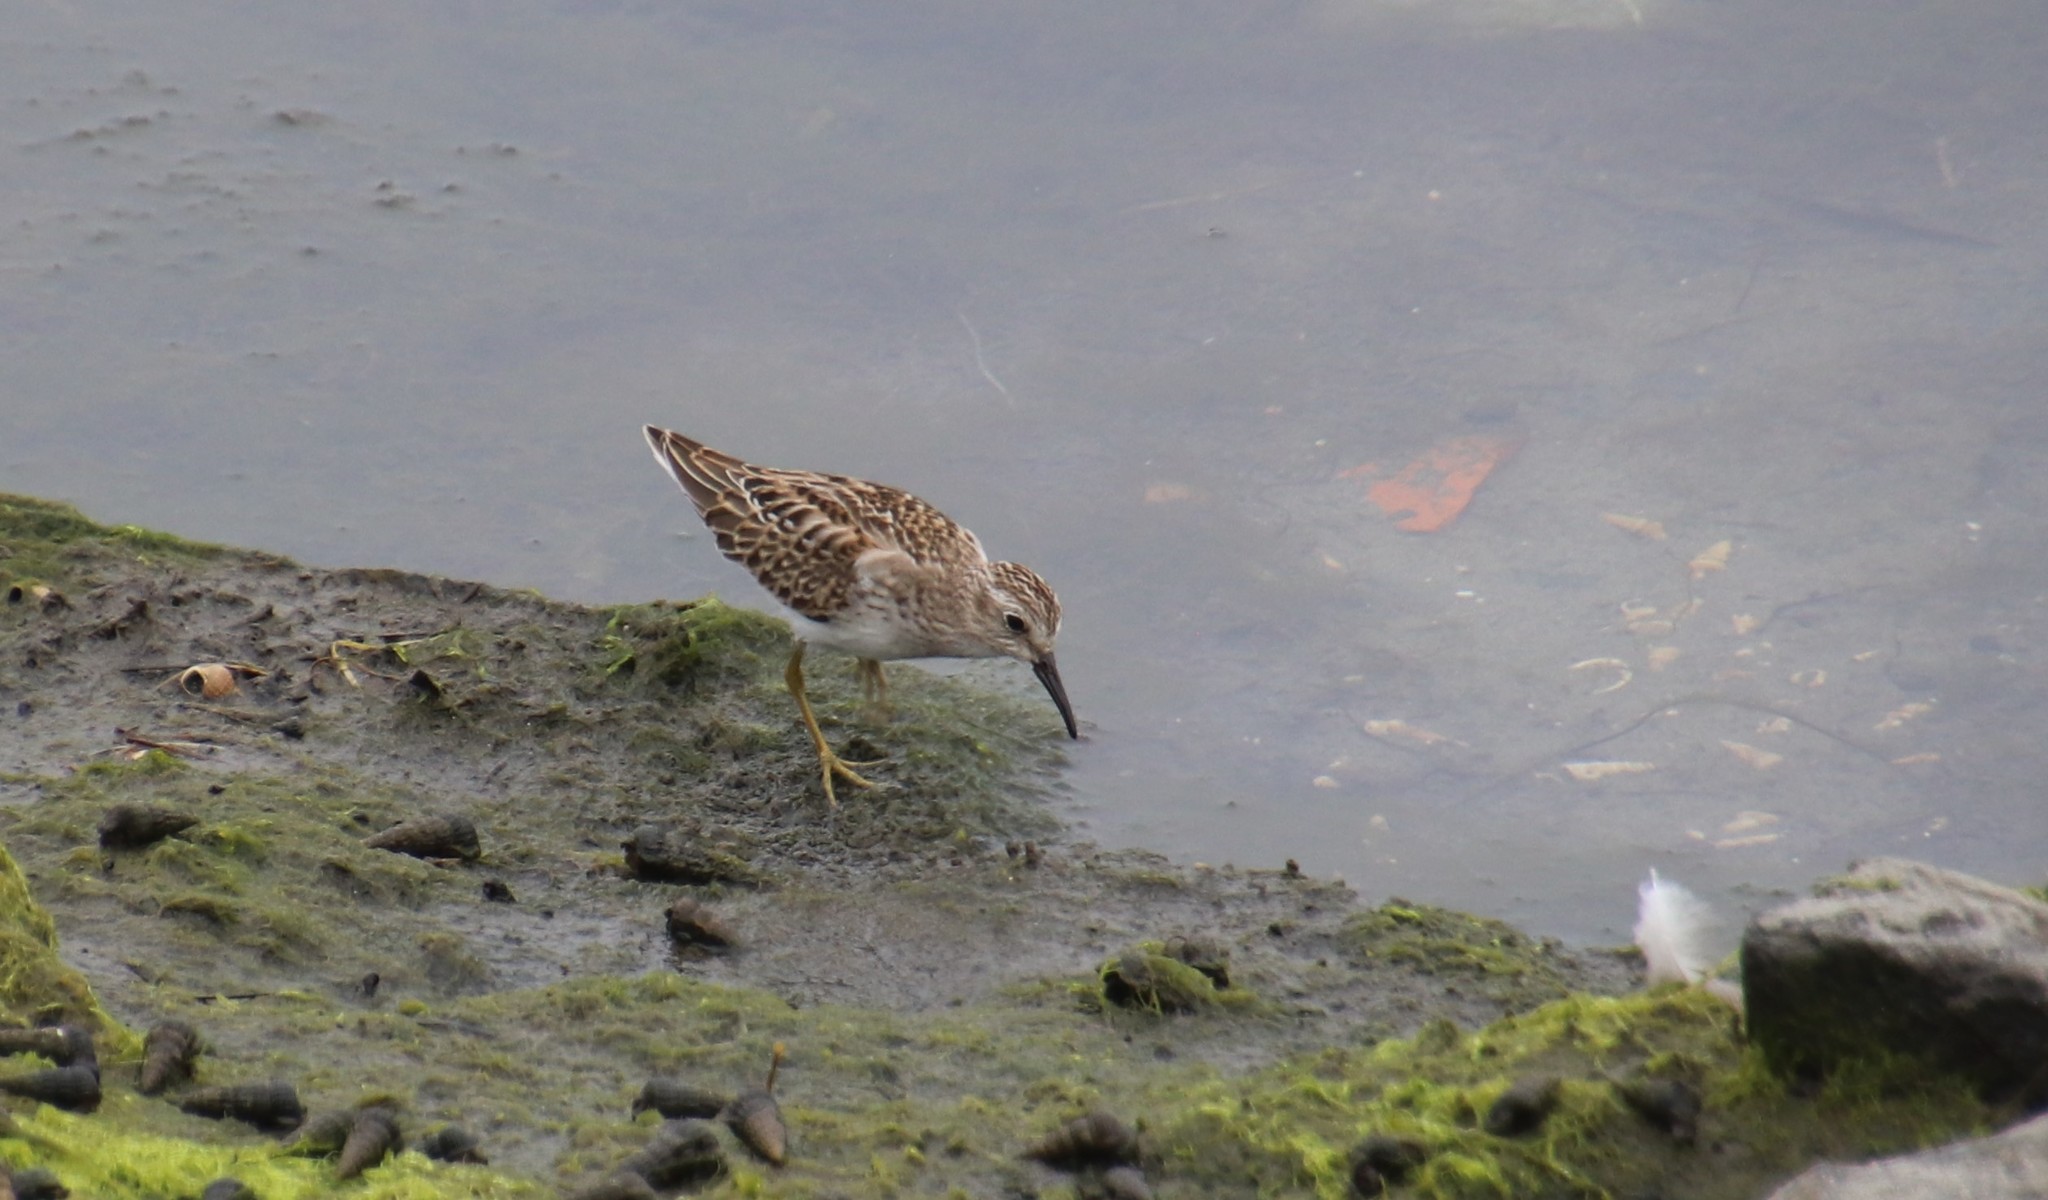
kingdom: Animalia
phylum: Chordata
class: Aves
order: Charadriiformes
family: Scolopacidae
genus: Calidris
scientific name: Calidris minutilla
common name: Least sandpiper
